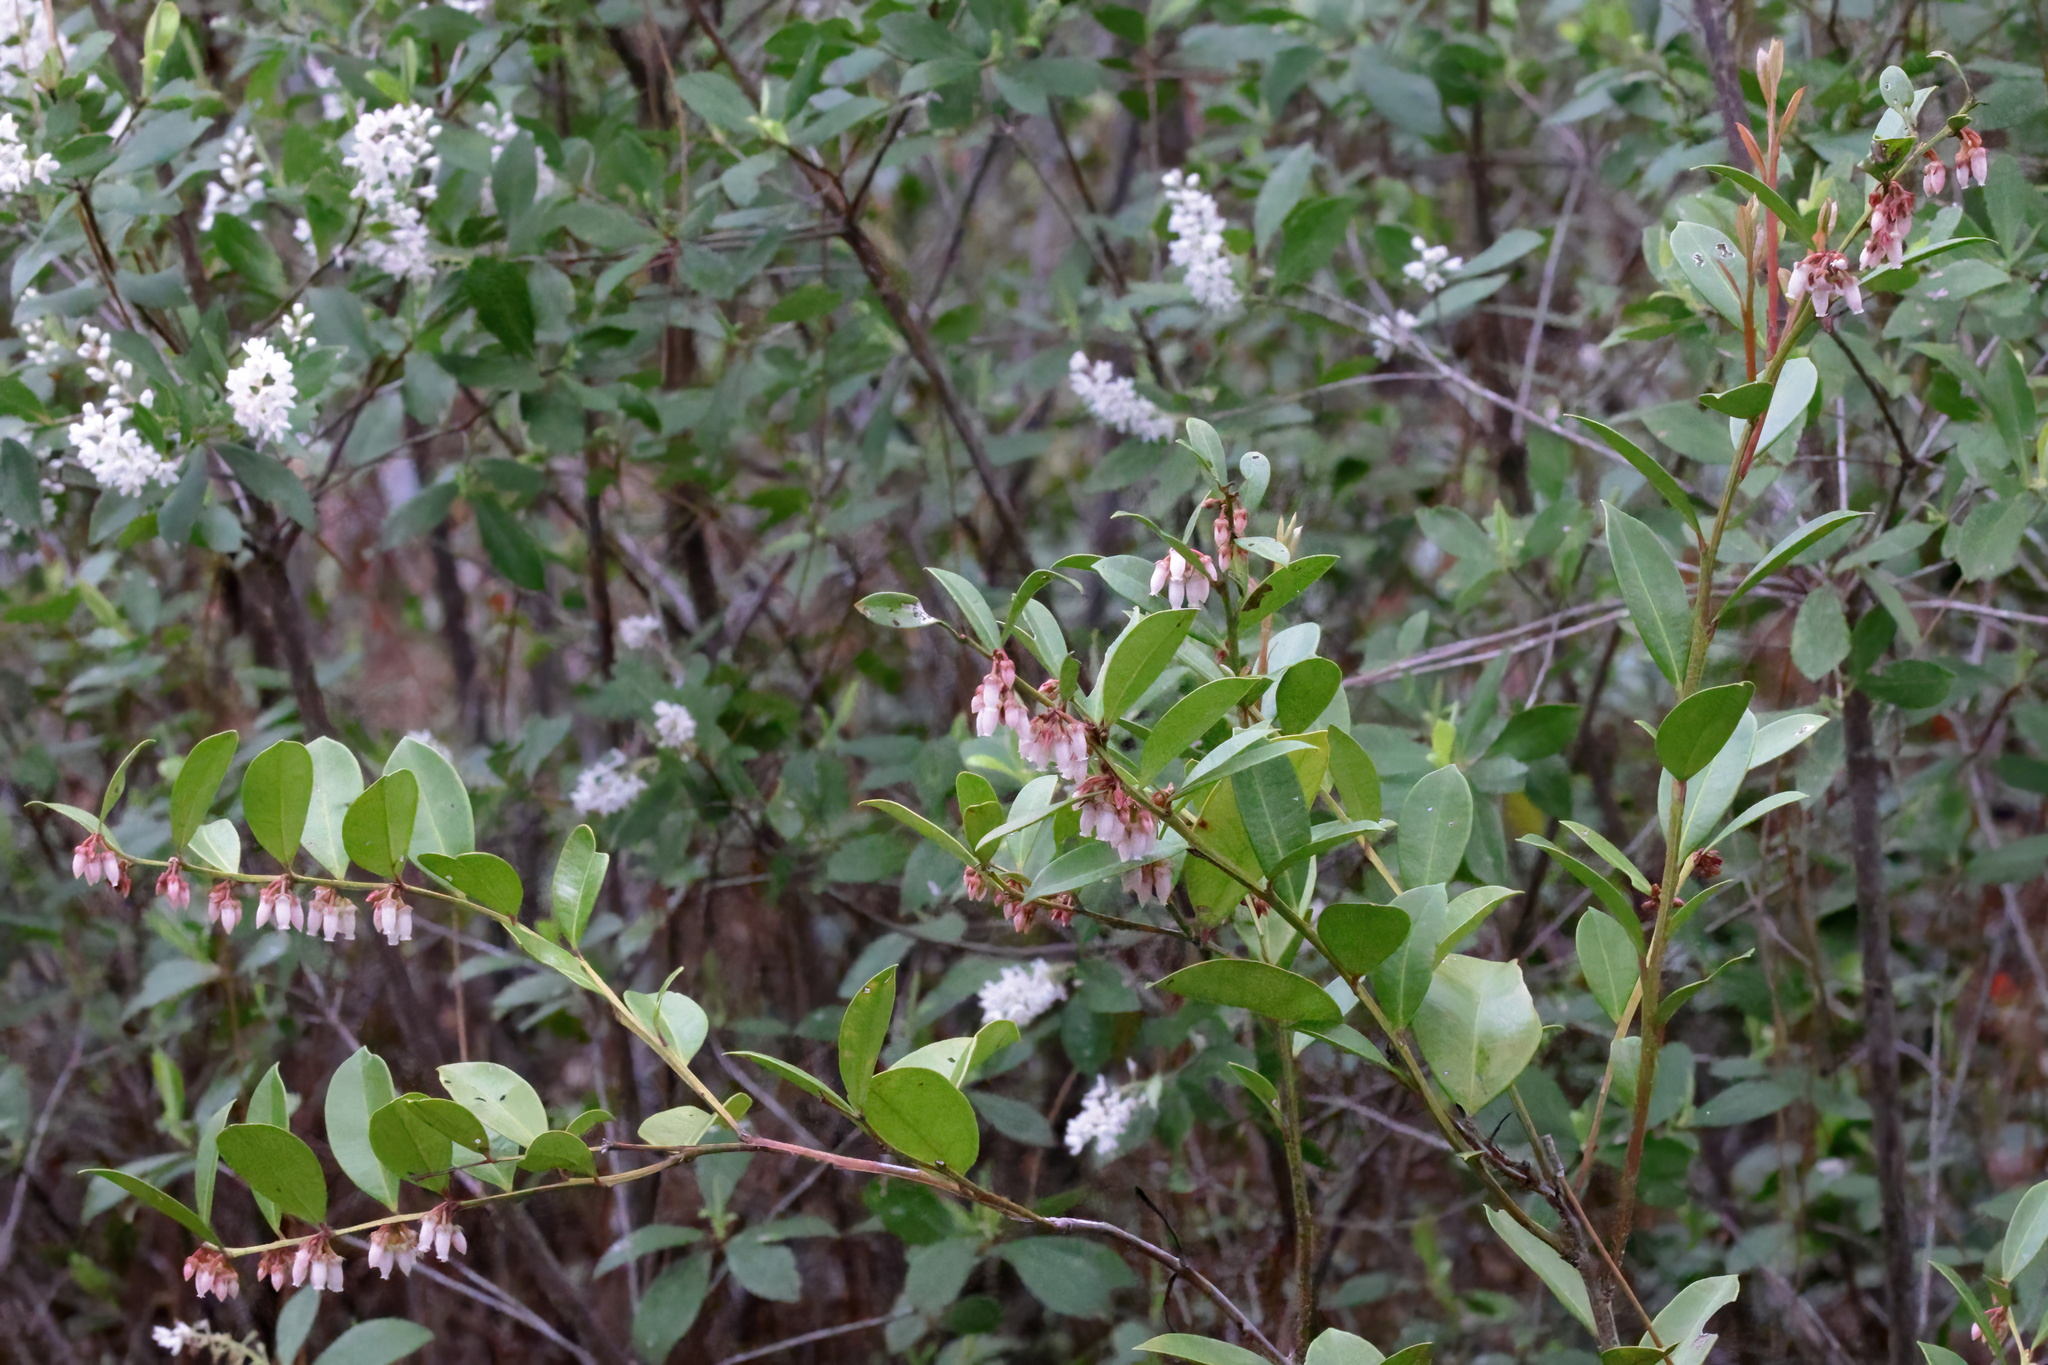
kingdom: Plantae
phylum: Tracheophyta
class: Magnoliopsida
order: Ericales
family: Ericaceae
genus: Lyonia
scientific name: Lyonia lucida
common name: Fetterbush
